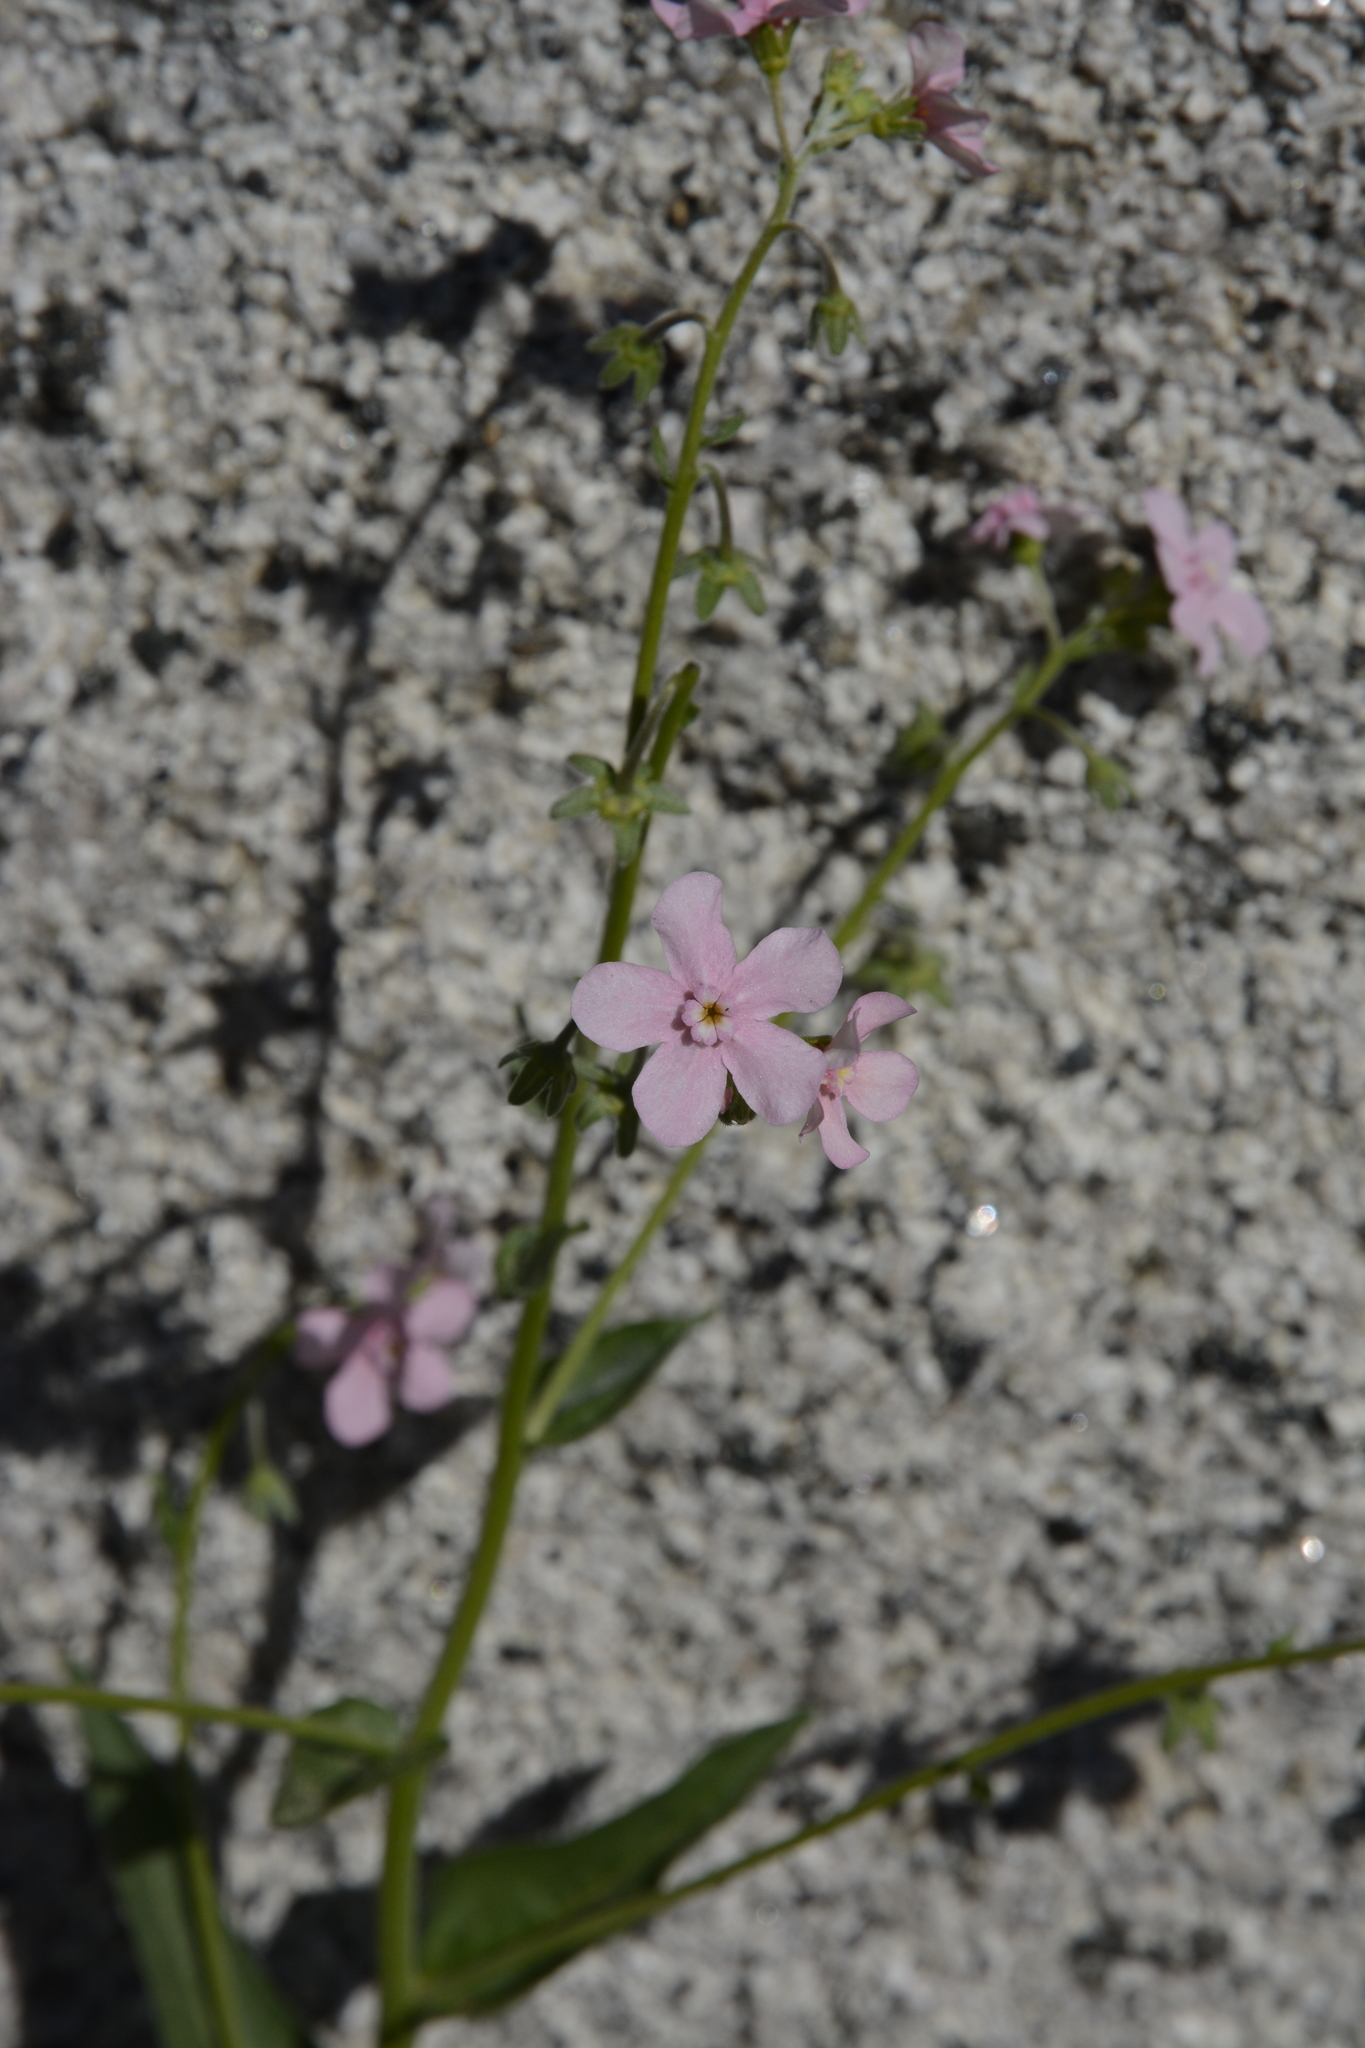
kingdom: Plantae
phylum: Tracheophyta
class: Magnoliopsida
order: Boraginales
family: Boraginaceae
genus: Hackelia
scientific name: Hackelia mundula
